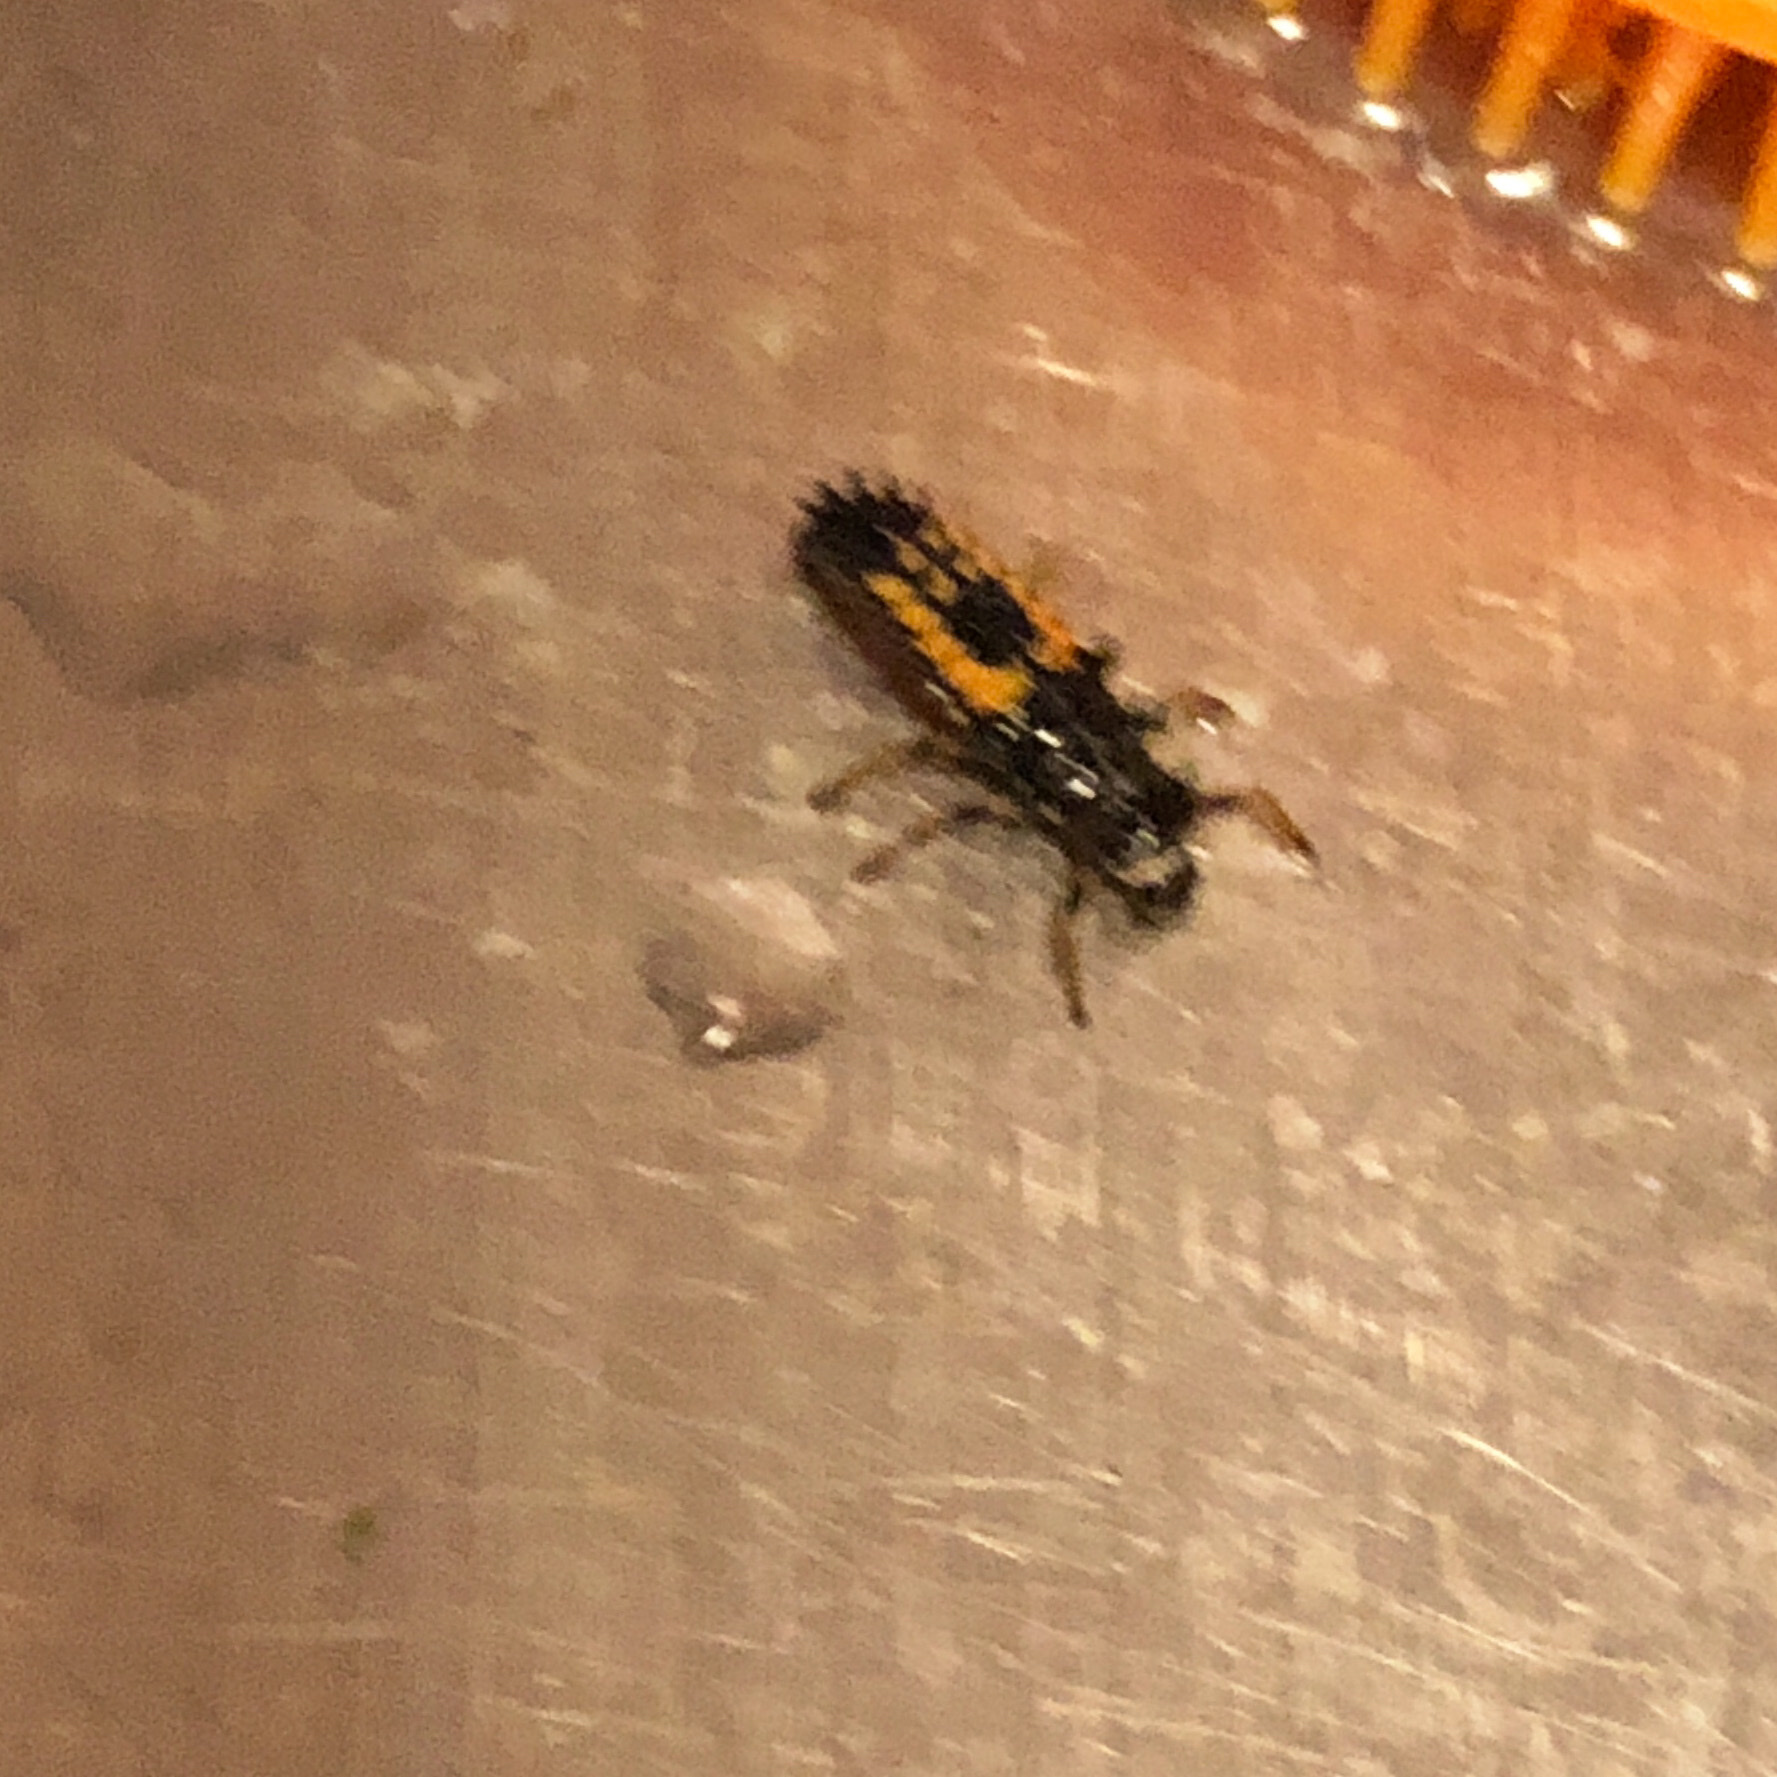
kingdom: Animalia
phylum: Arthropoda
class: Insecta
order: Coleoptera
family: Coccinellidae
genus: Harmonia
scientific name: Harmonia axyridis
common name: Harlequin ladybird
